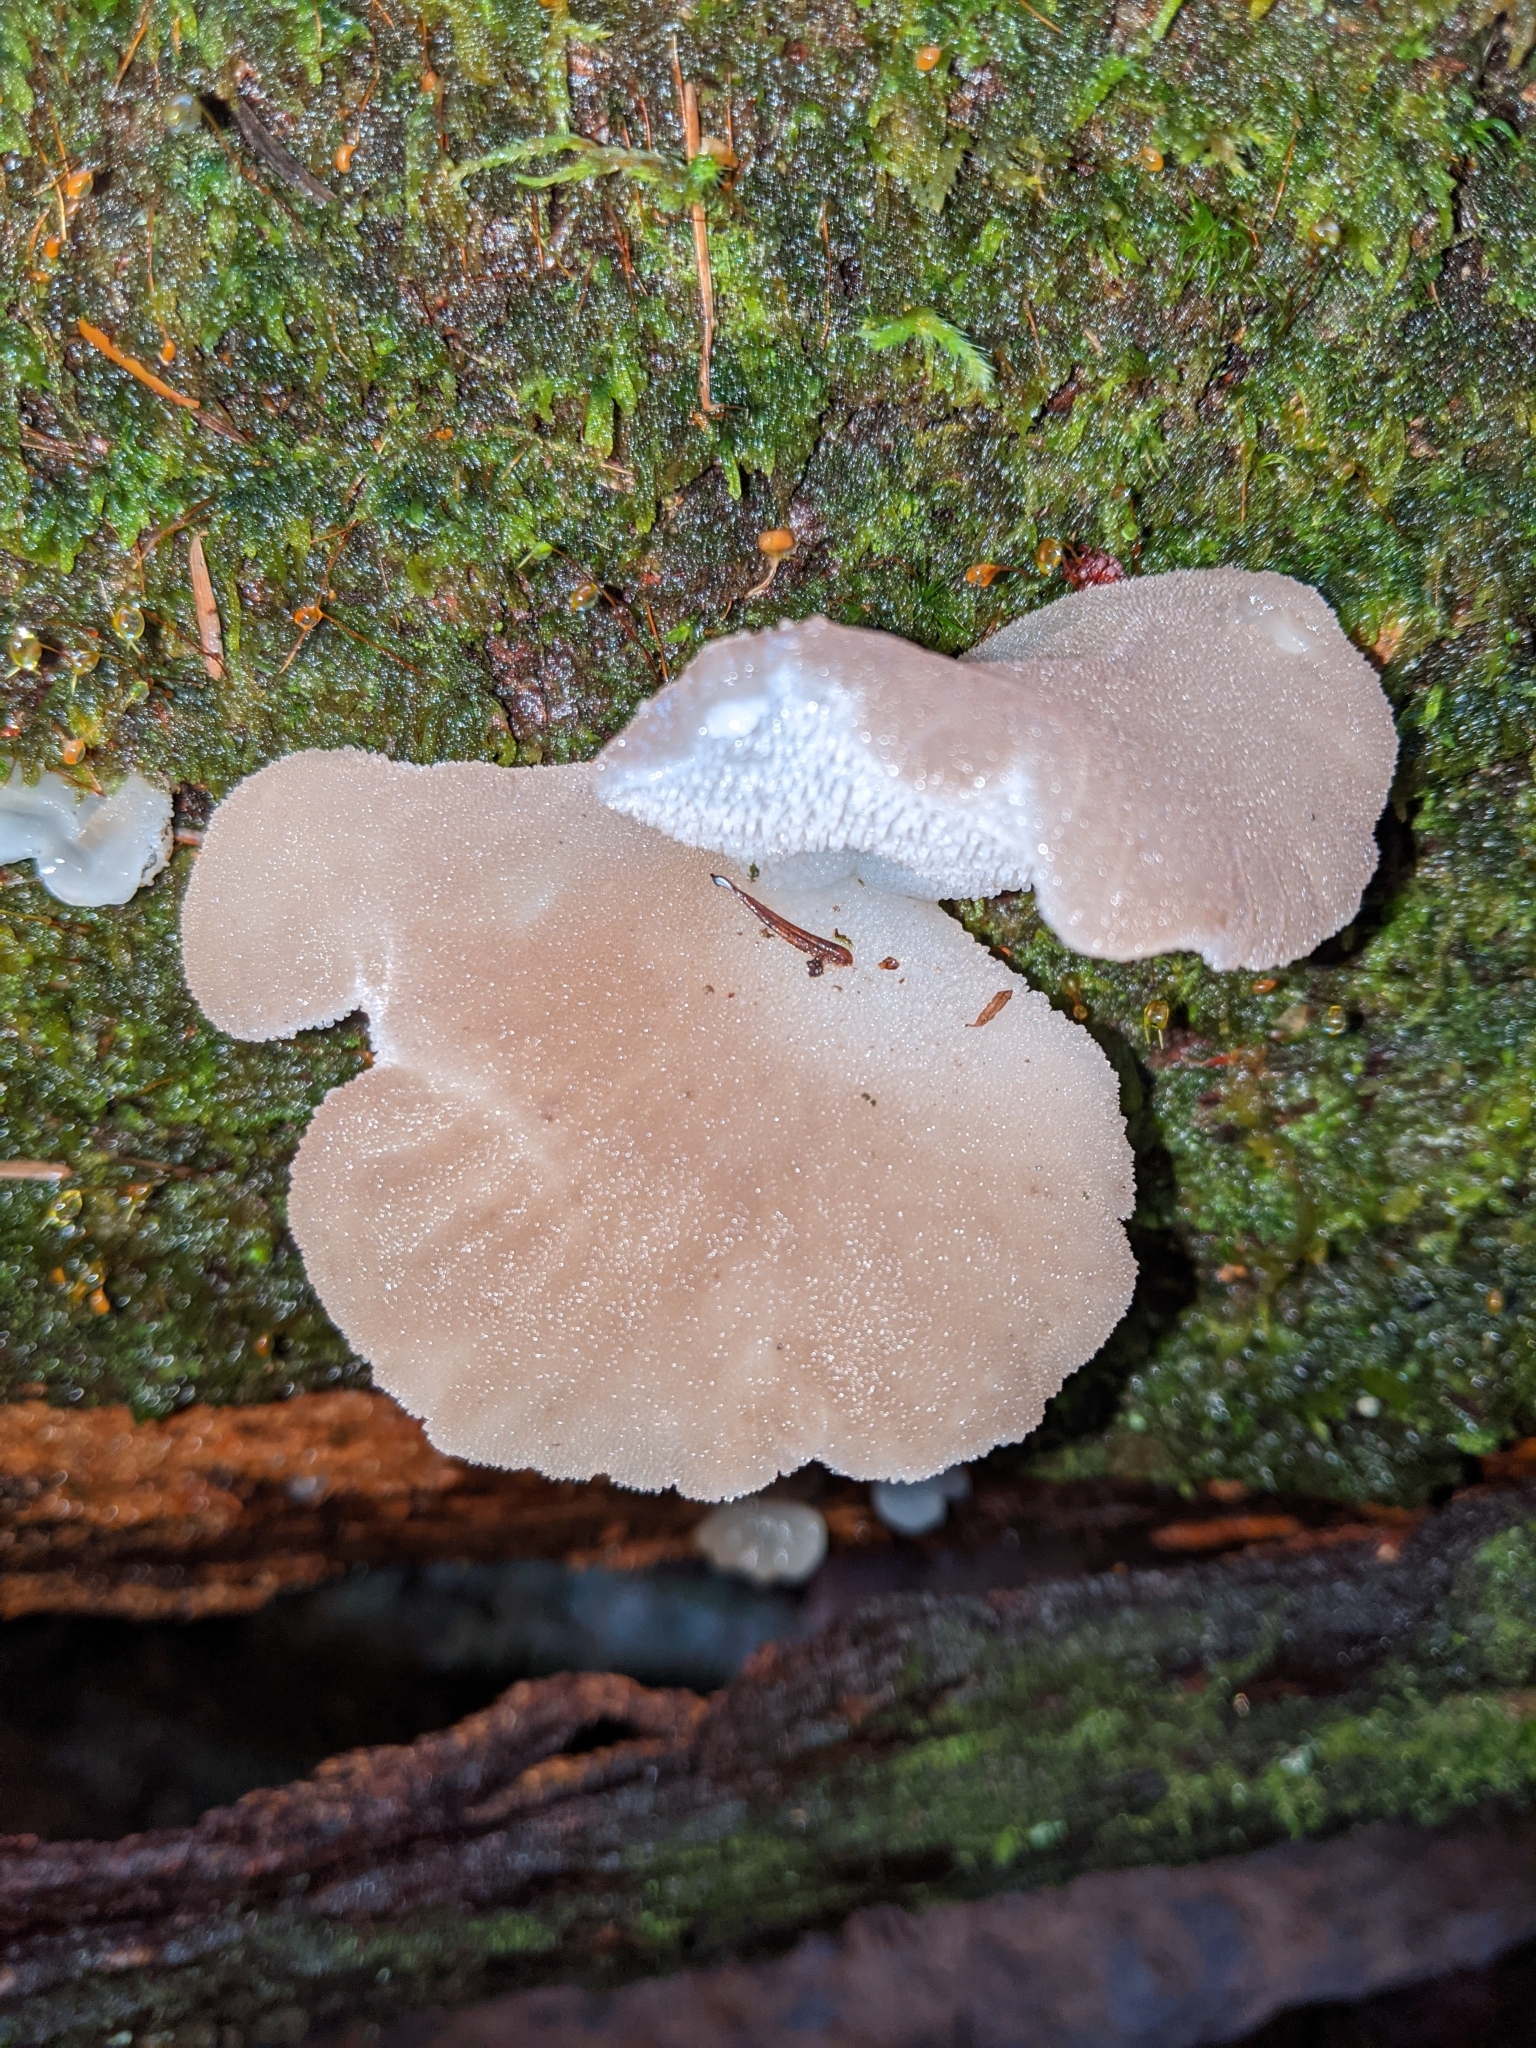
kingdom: Fungi
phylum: Basidiomycota
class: Agaricomycetes
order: Auriculariales
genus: Pseudohydnum
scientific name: Pseudohydnum gelatinosum
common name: Jelly tongue
